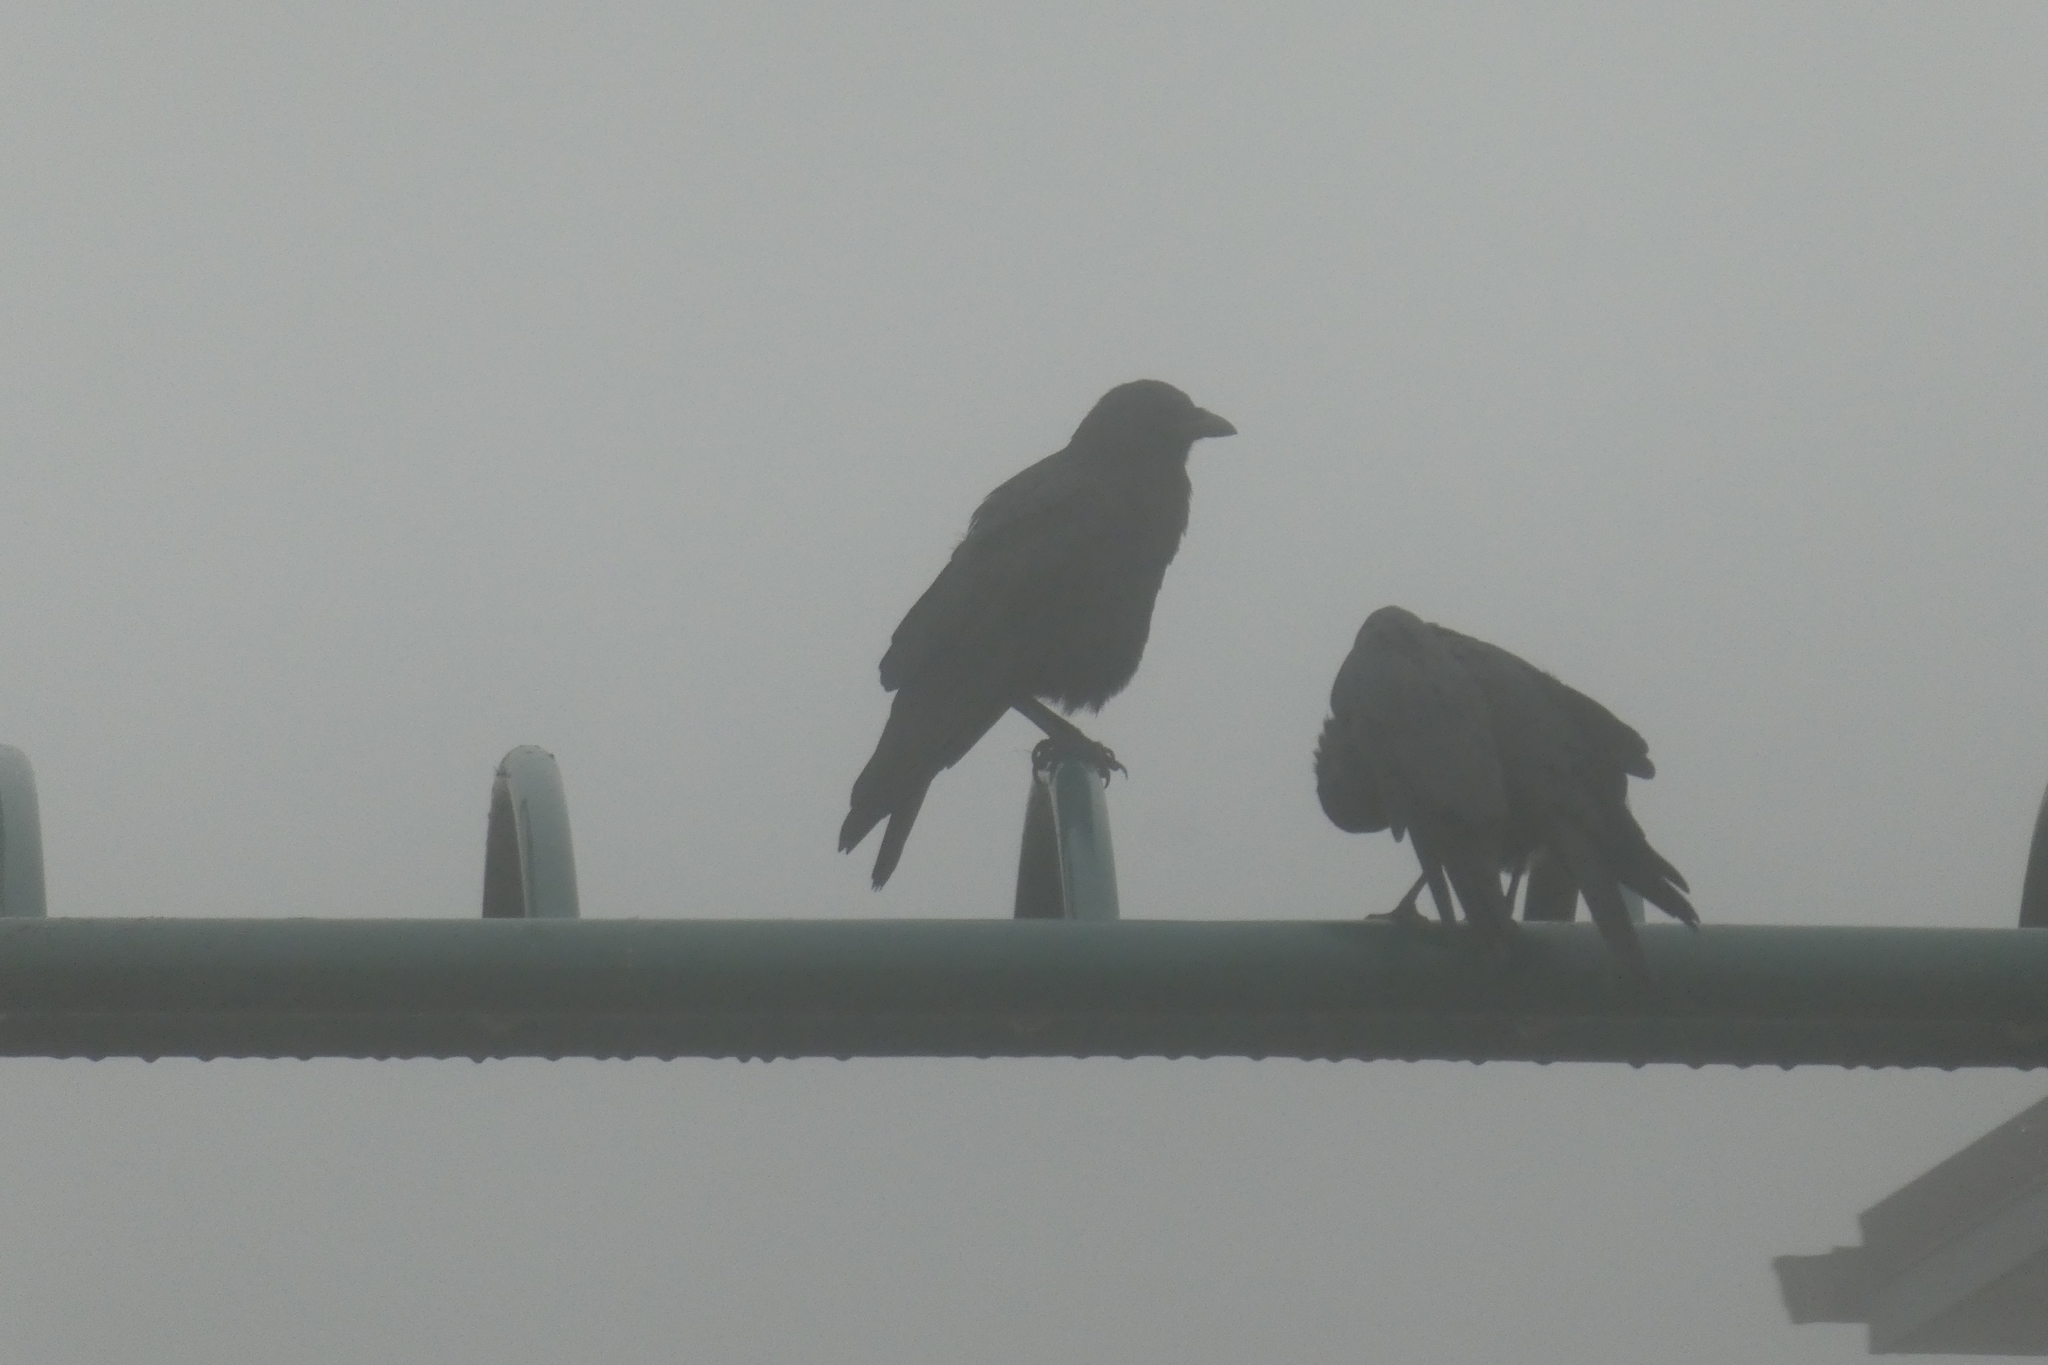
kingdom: Animalia
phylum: Chordata
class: Aves
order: Passeriformes
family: Corvidae
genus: Corvus
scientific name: Corvus brachyrhynchos
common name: American crow
